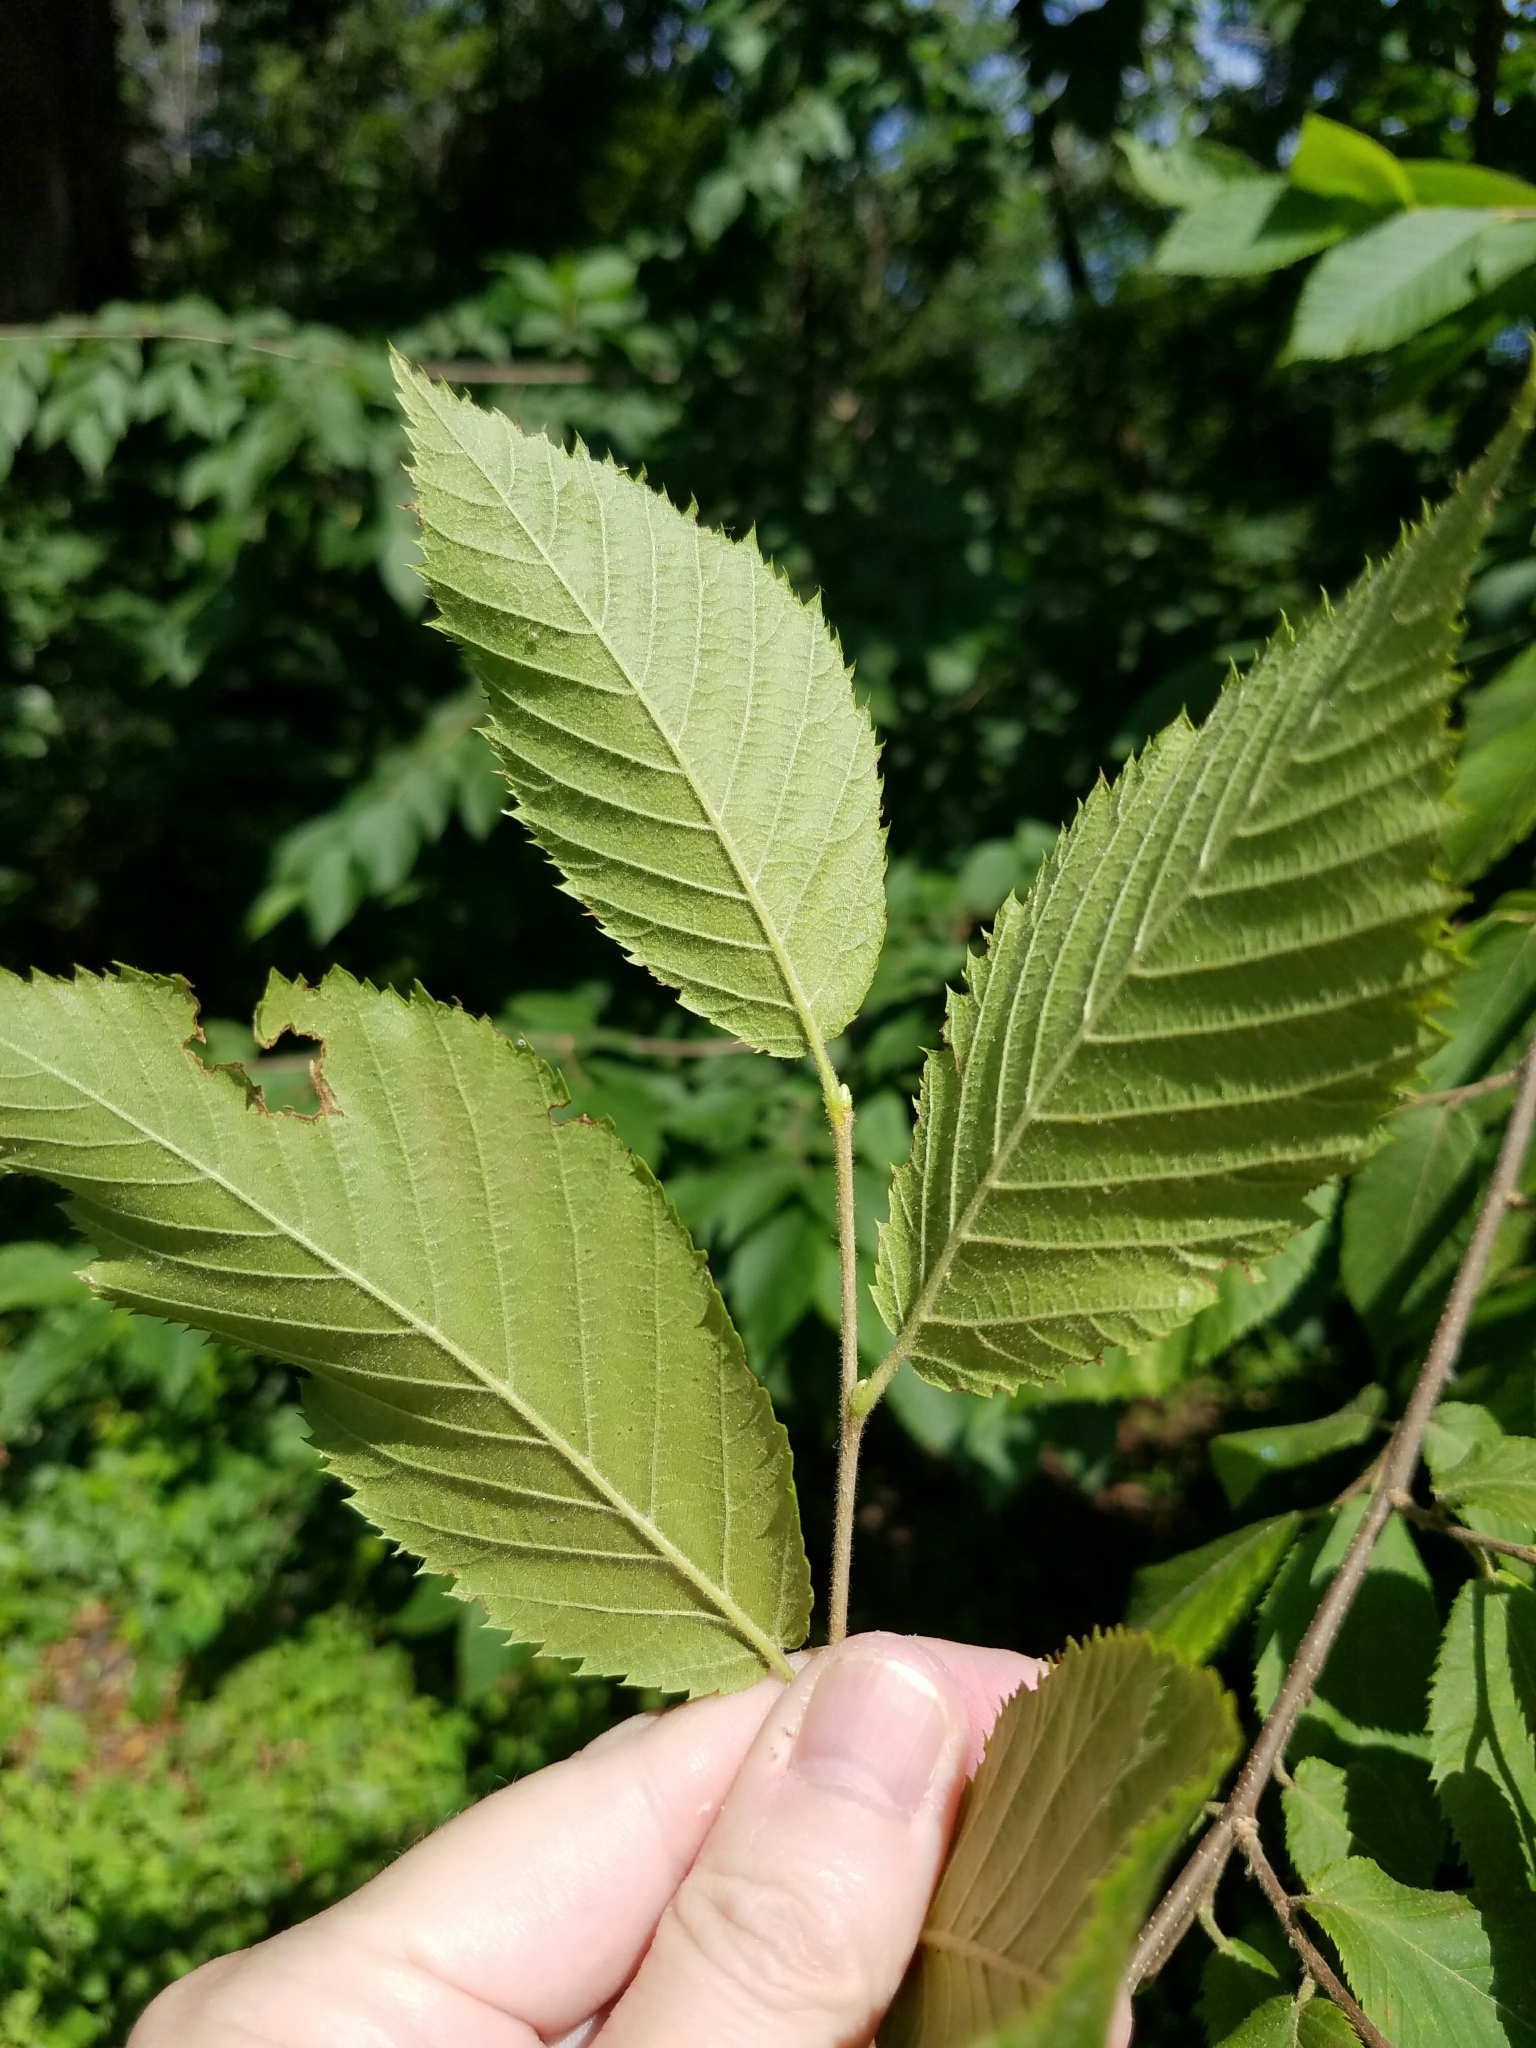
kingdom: Plantae
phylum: Tracheophyta
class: Magnoliopsida
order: Fagales
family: Betulaceae
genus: Ostrya
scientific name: Ostrya virginiana
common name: Ironwood
